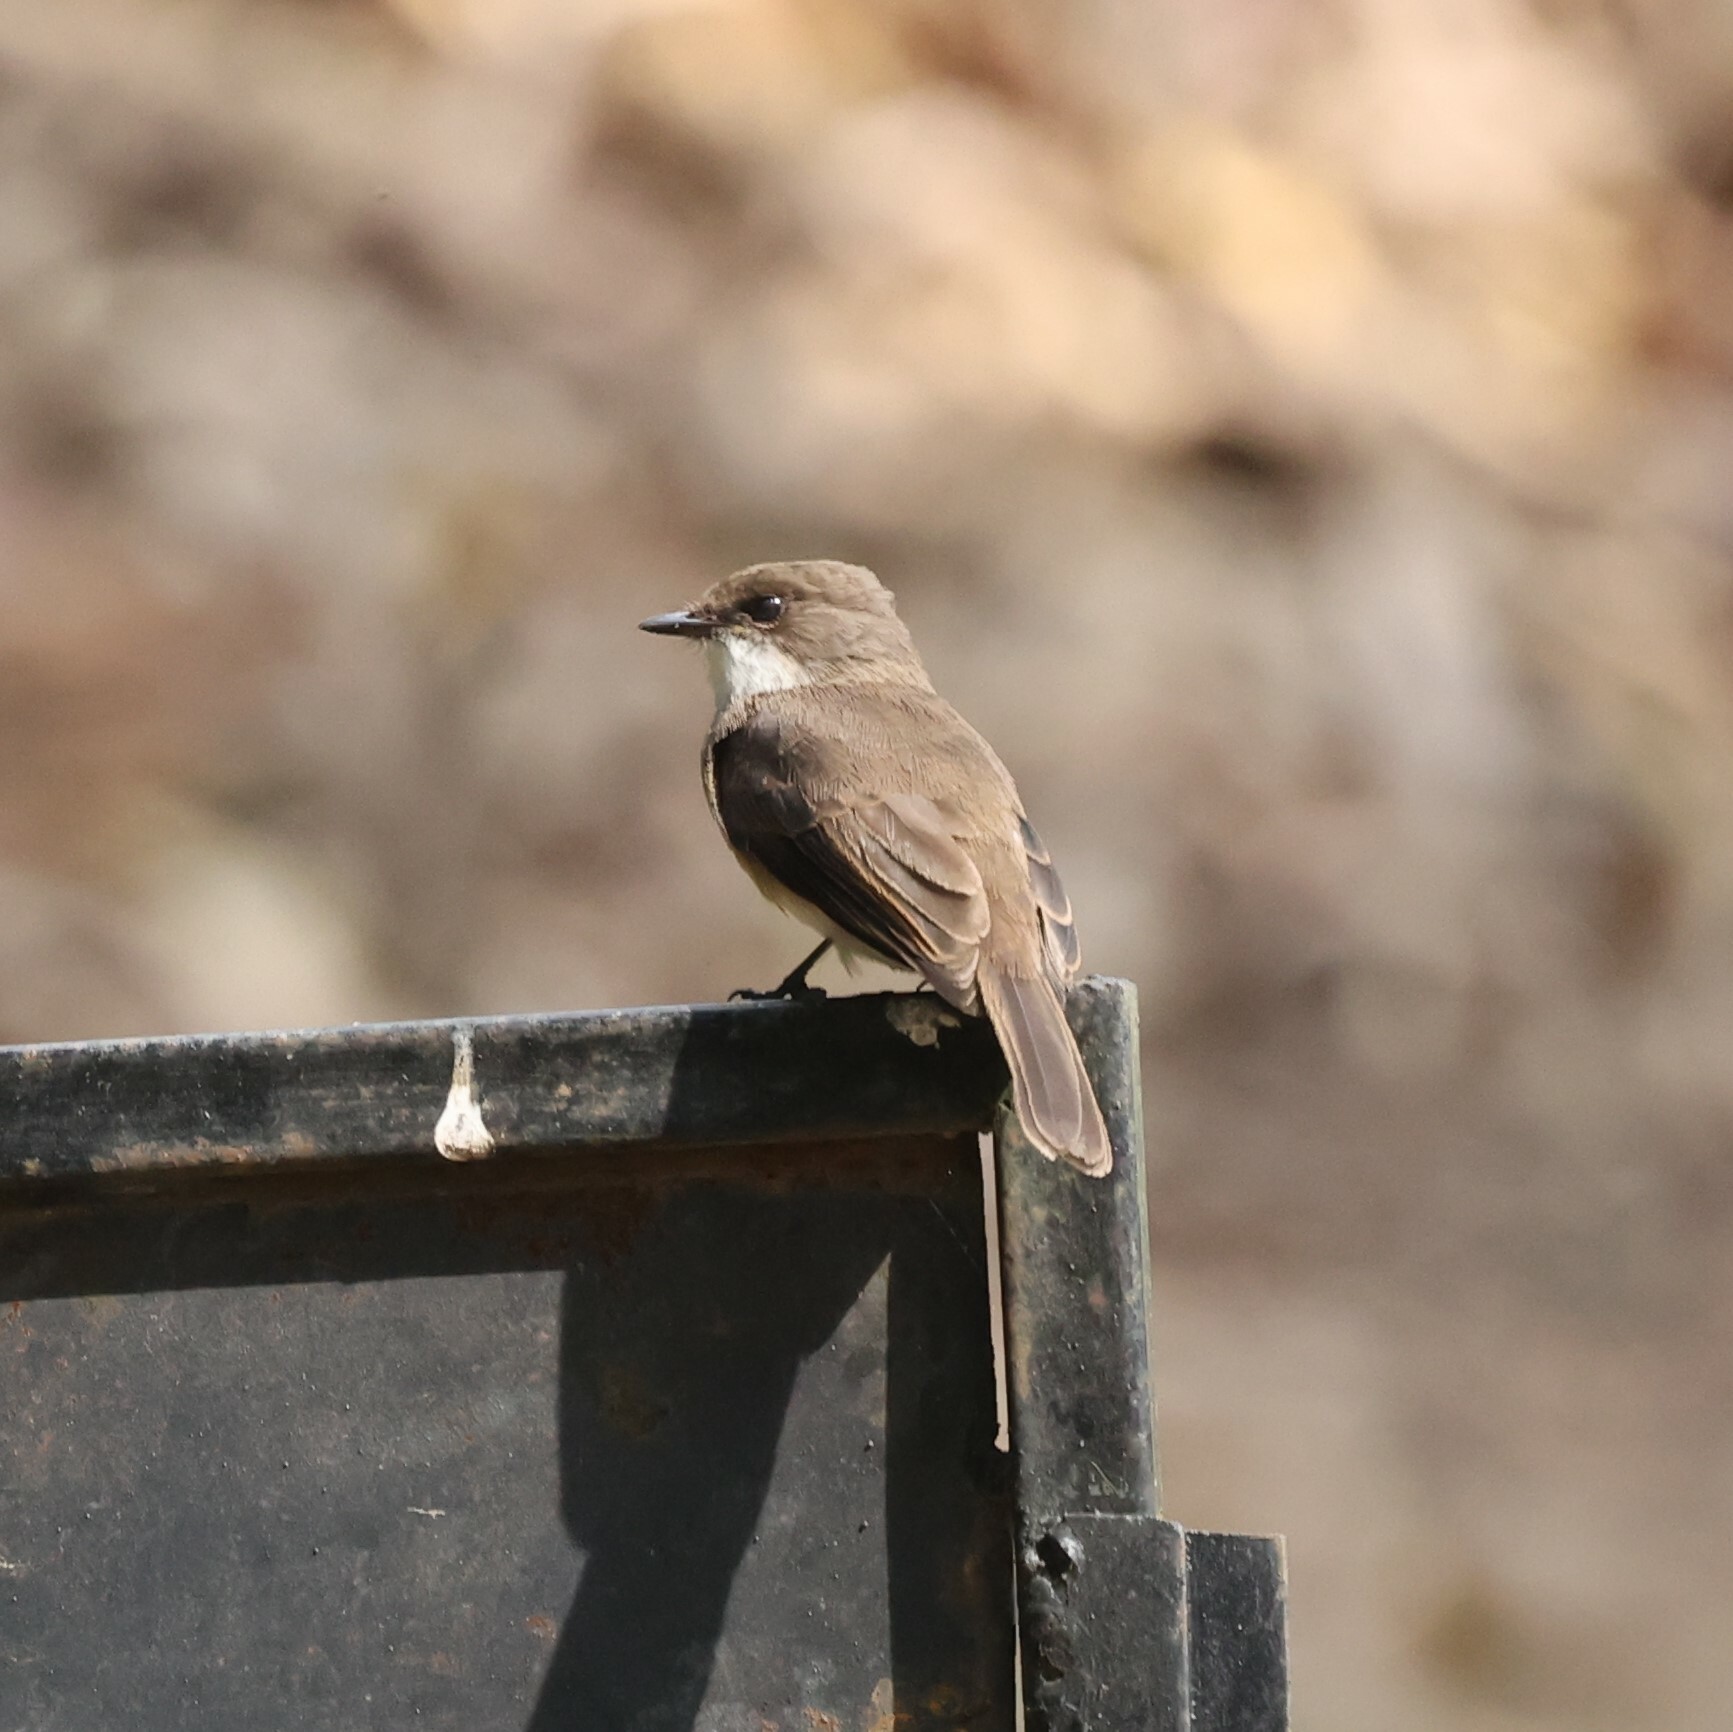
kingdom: Animalia
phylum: Chordata
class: Aves
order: Passeriformes
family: Muscicapidae
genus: Muscicapa
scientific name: Muscicapa aquatica
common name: Swamp flycatcher
